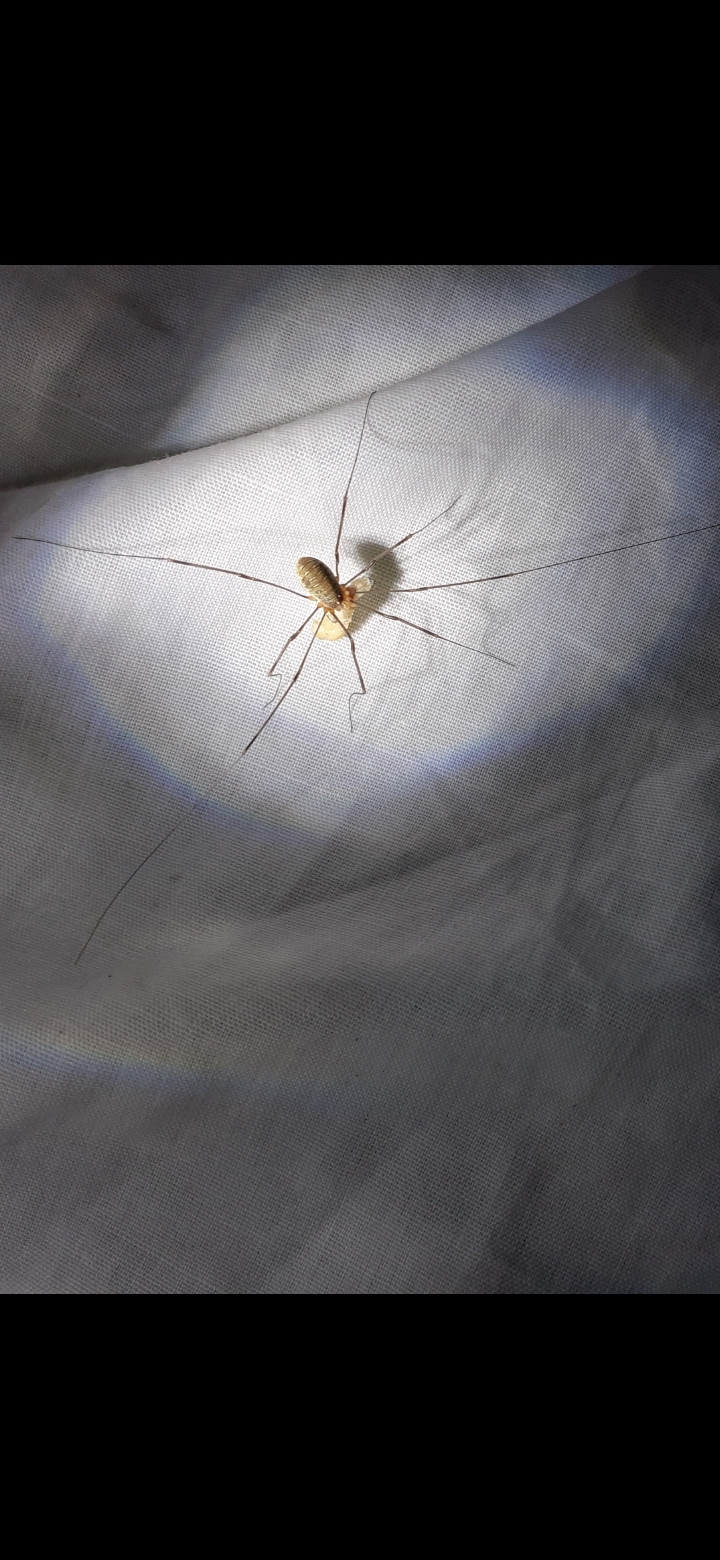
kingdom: Animalia
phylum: Arthropoda
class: Arachnida
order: Opiliones
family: Phalangiidae
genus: Opilio
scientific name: Opilio canestrinii
